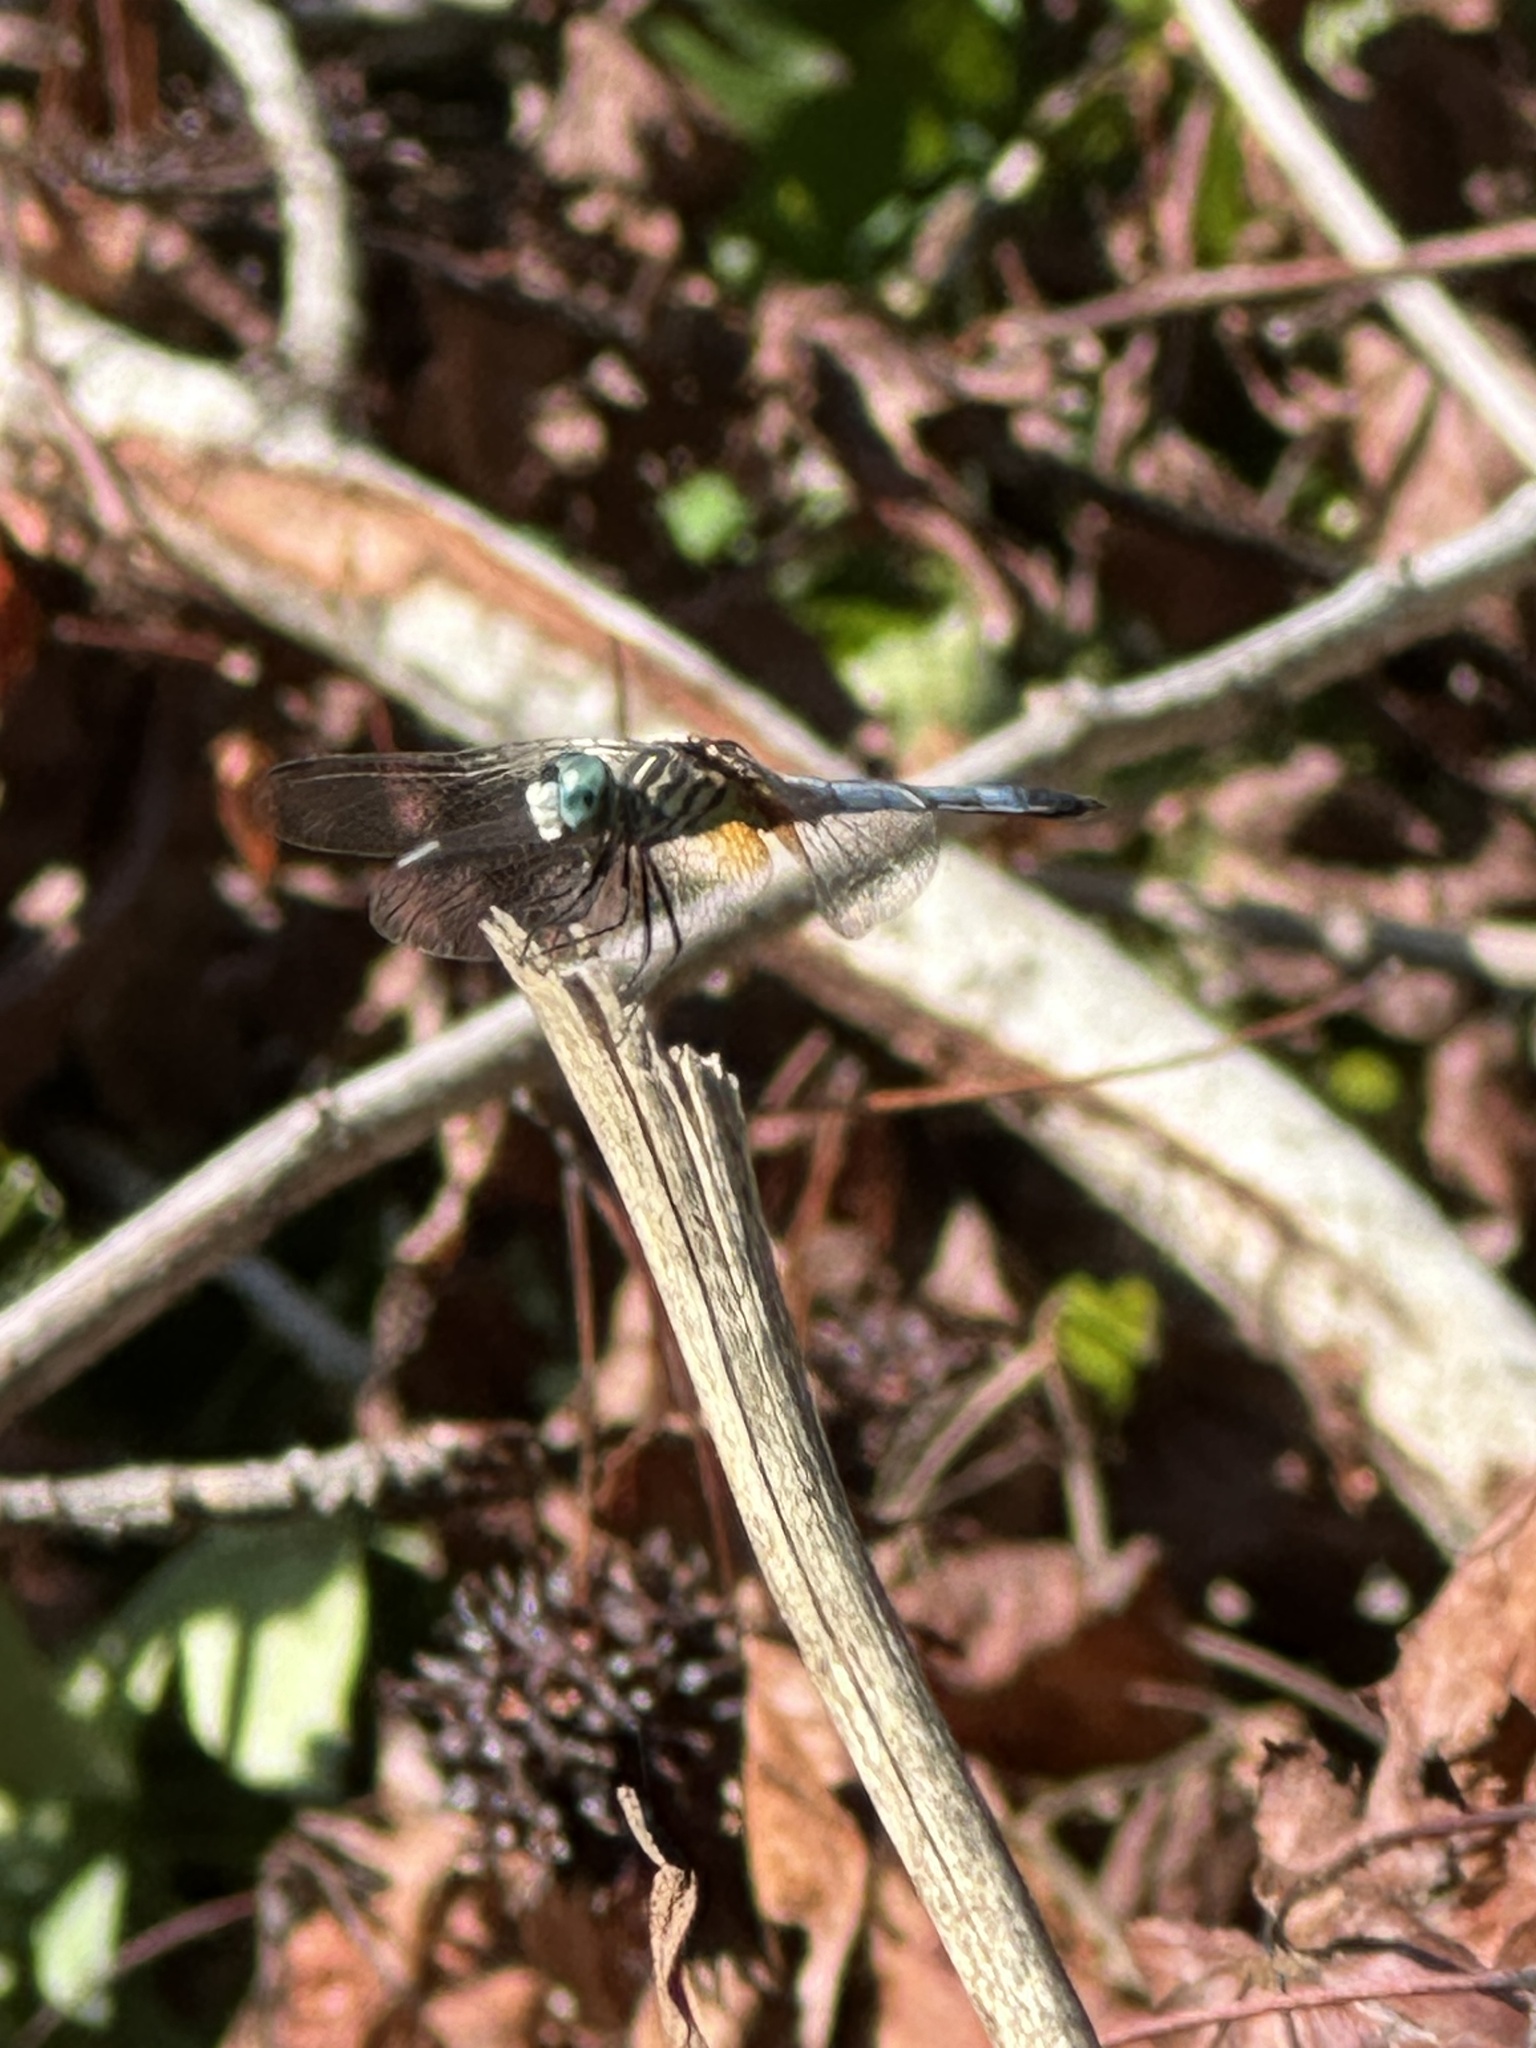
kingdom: Animalia
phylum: Arthropoda
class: Insecta
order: Odonata
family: Libellulidae
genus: Pachydiplax
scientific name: Pachydiplax longipennis
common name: Blue dasher
